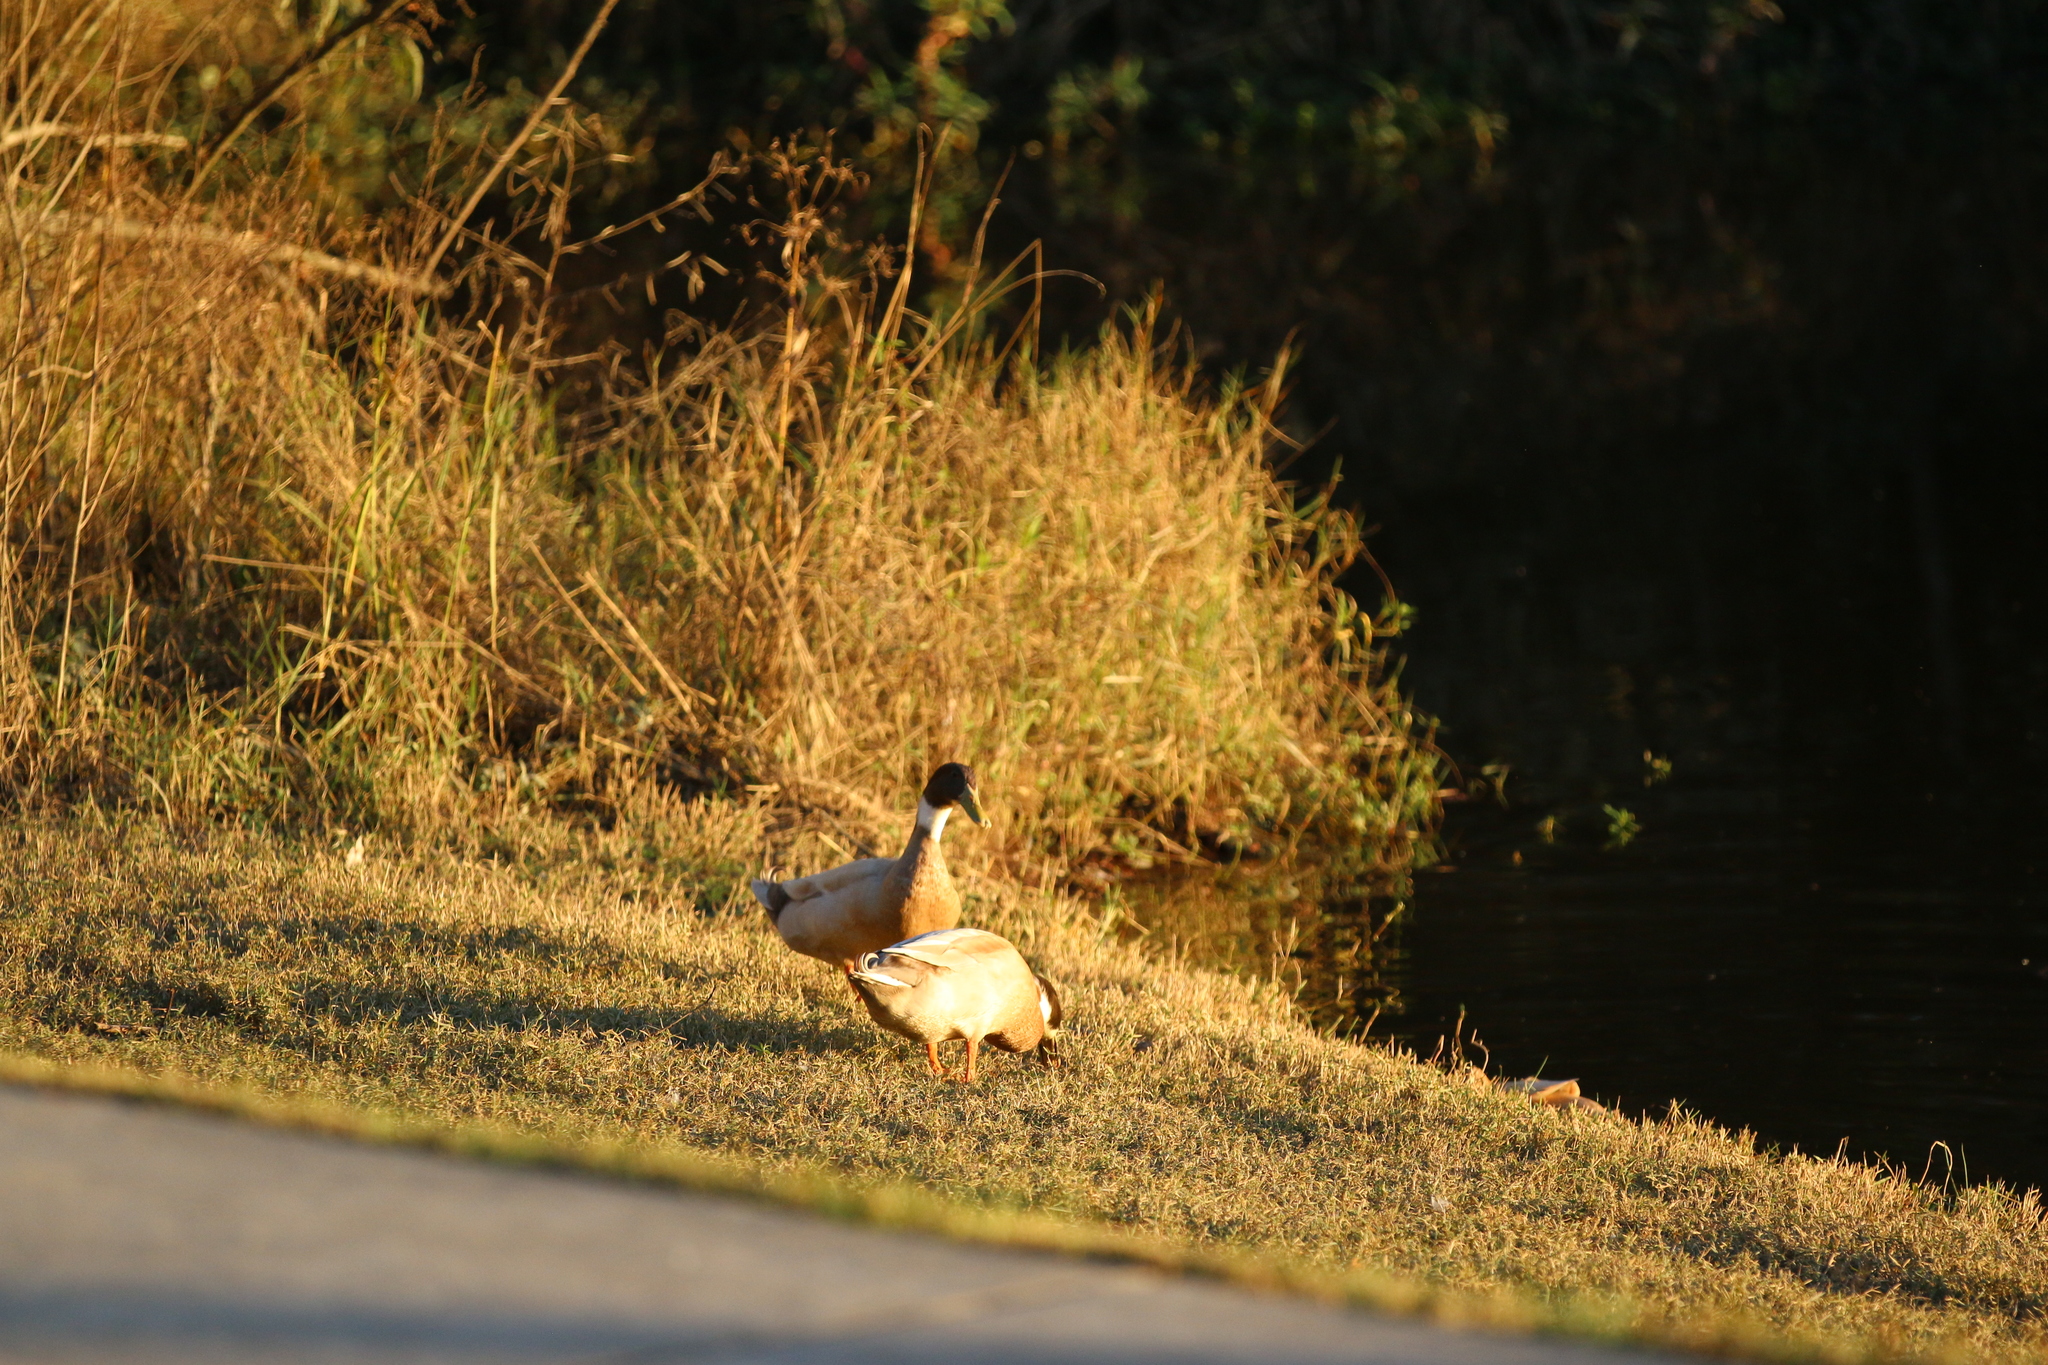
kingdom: Animalia
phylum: Chordata
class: Aves
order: Anseriformes
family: Anatidae
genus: Anas
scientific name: Anas platyrhynchos
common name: Mallard
